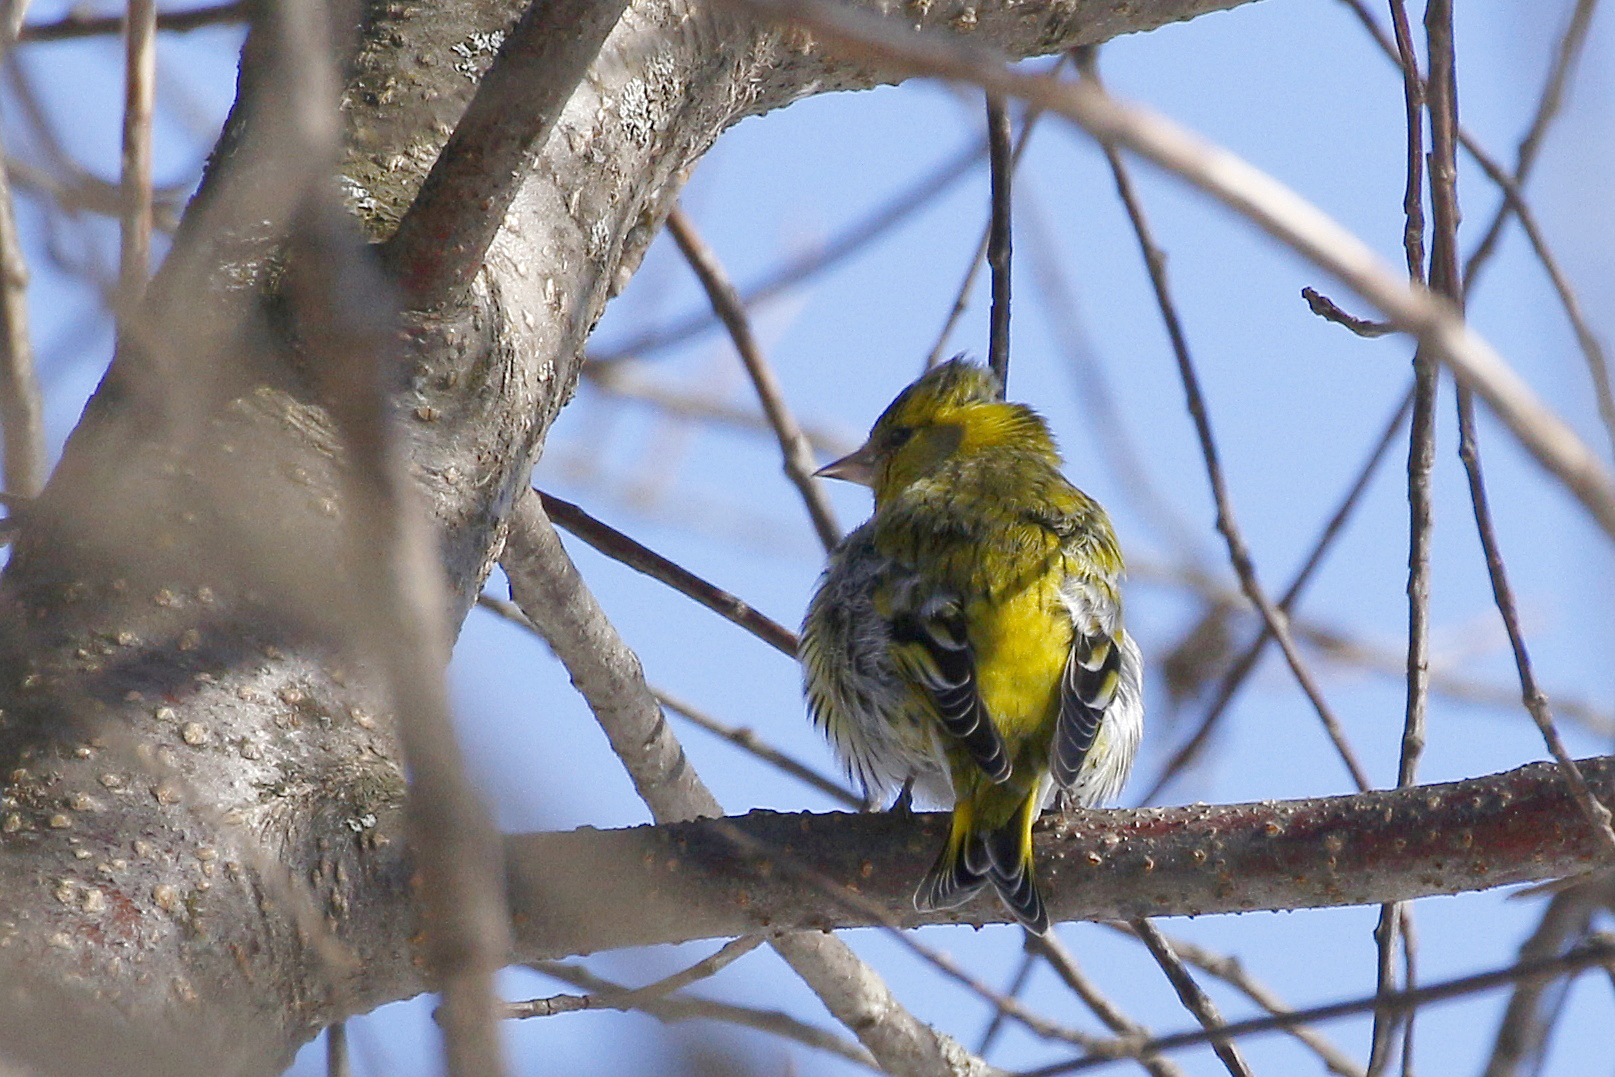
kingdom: Animalia
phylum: Chordata
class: Aves
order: Passeriformes
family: Fringillidae
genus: Spinus
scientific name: Spinus spinus
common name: Eurasian siskin
